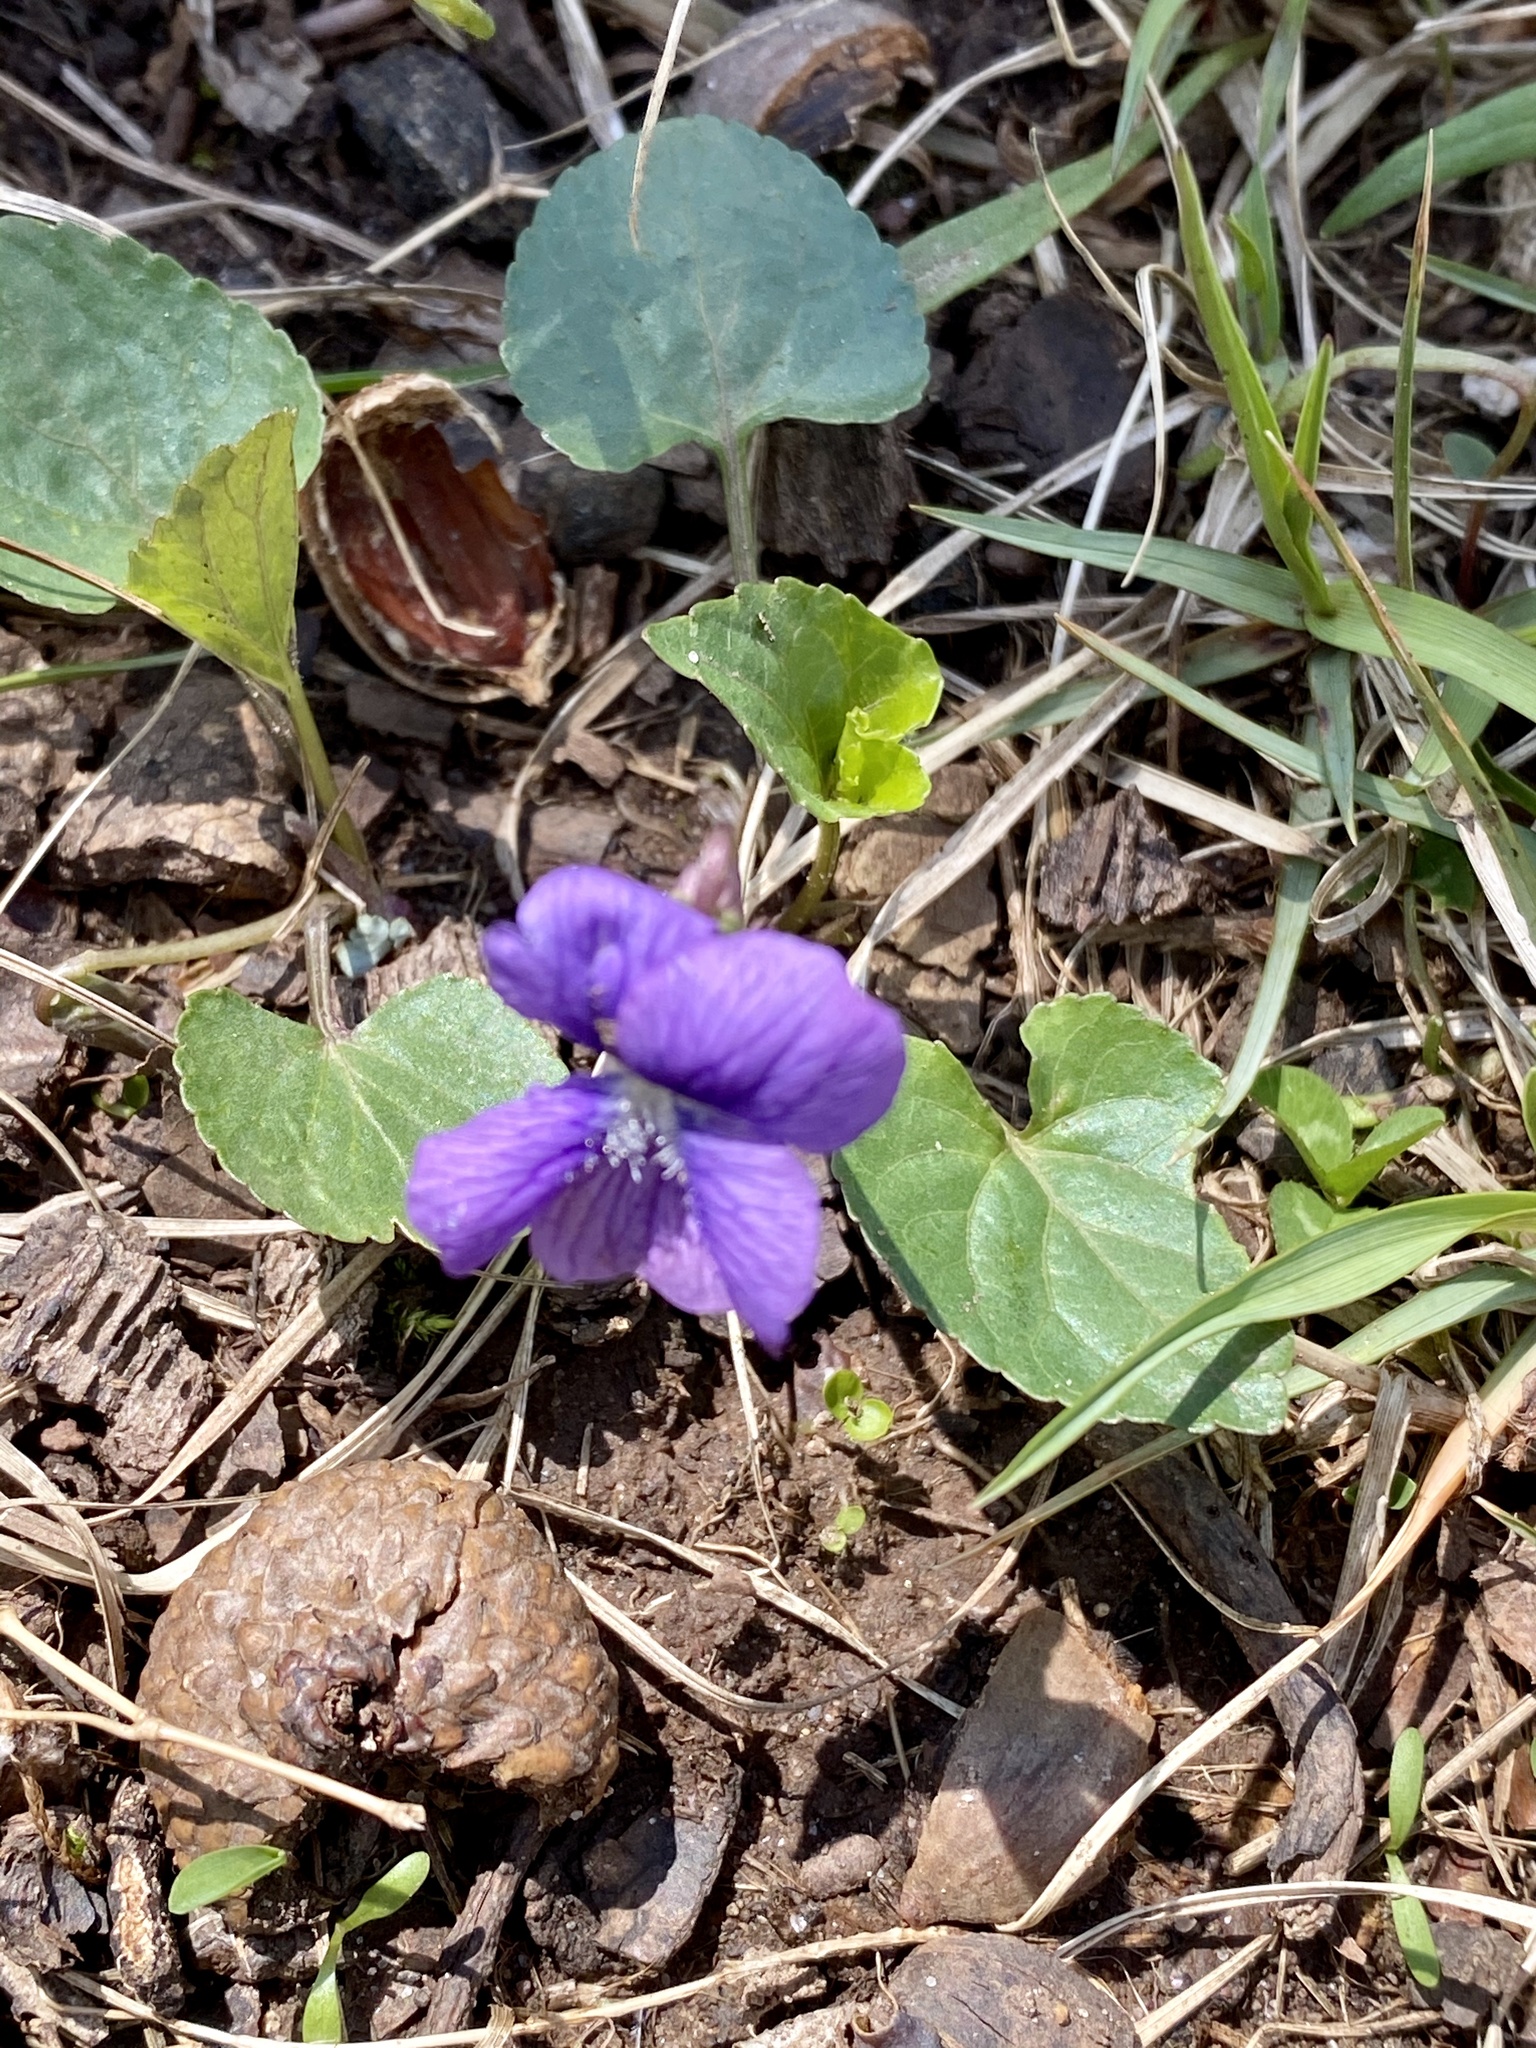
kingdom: Plantae
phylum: Tracheophyta
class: Magnoliopsida
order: Malpighiales
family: Violaceae
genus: Viola
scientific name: Viola sororia
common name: Dooryard violet
